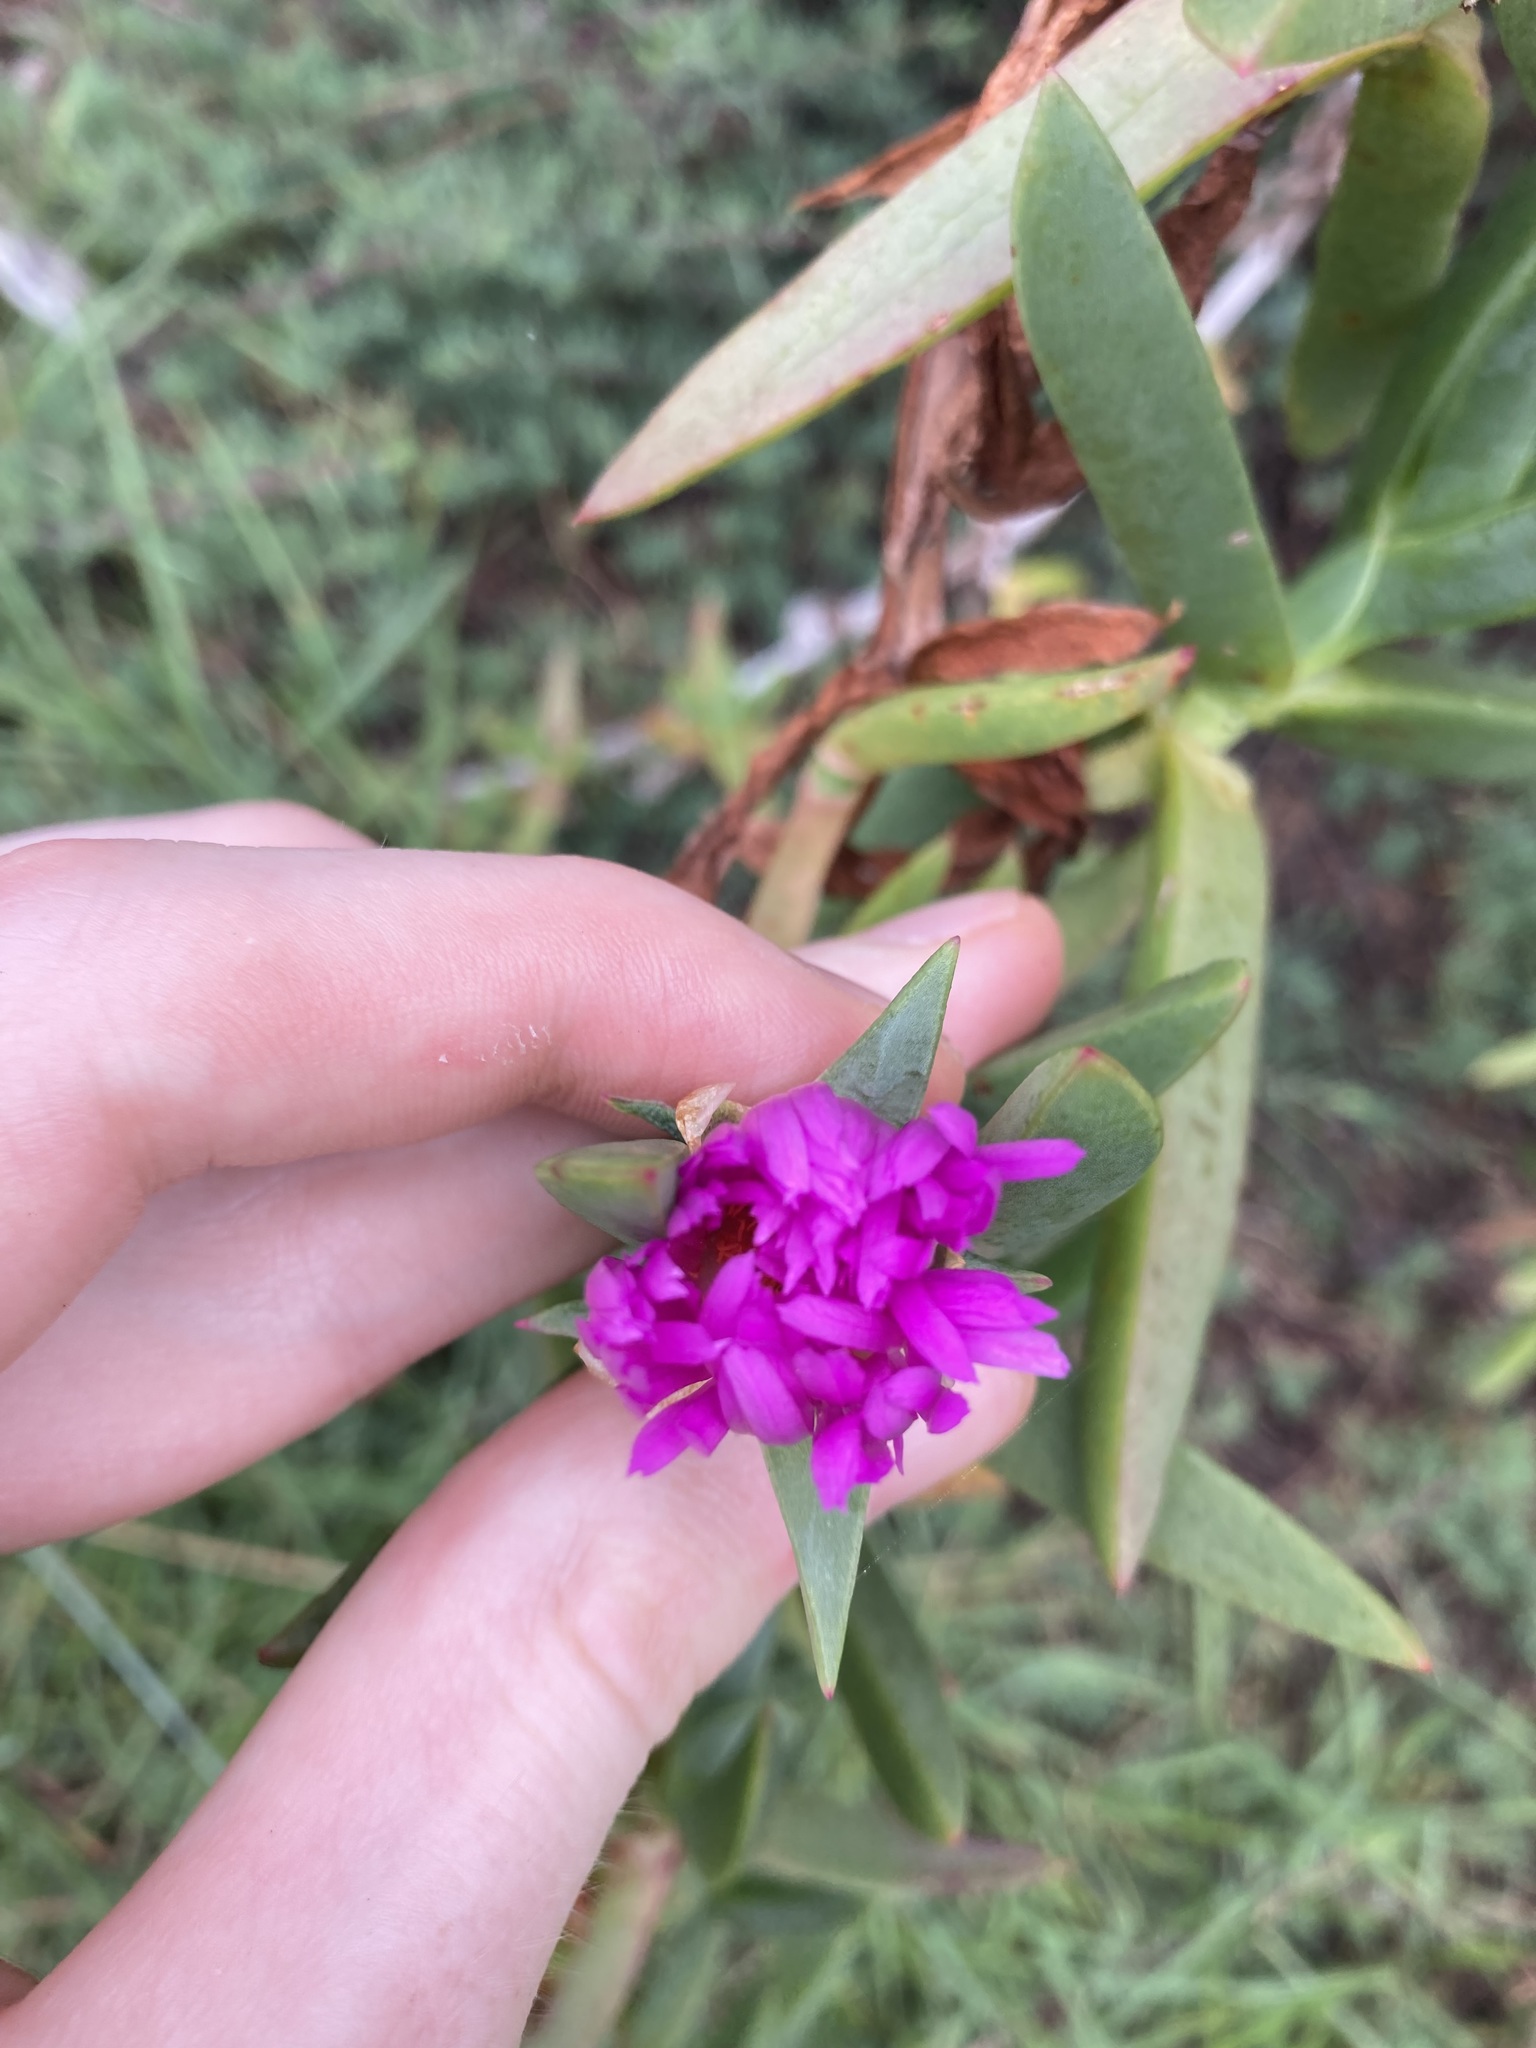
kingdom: Plantae
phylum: Tracheophyta
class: Magnoliopsida
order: Caryophyllales
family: Aizoaceae
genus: Carpobrotus
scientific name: Carpobrotus glaucescens
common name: Angular sea-fig
